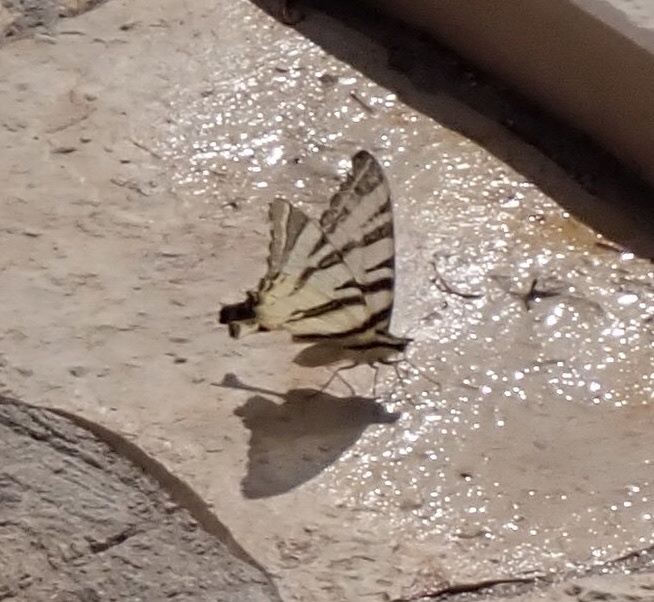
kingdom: Animalia
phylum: Arthropoda
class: Insecta
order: Lepidoptera
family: Papilionidae
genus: Iphiclides
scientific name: Iphiclides podalirius
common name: Scarce swallowtail
